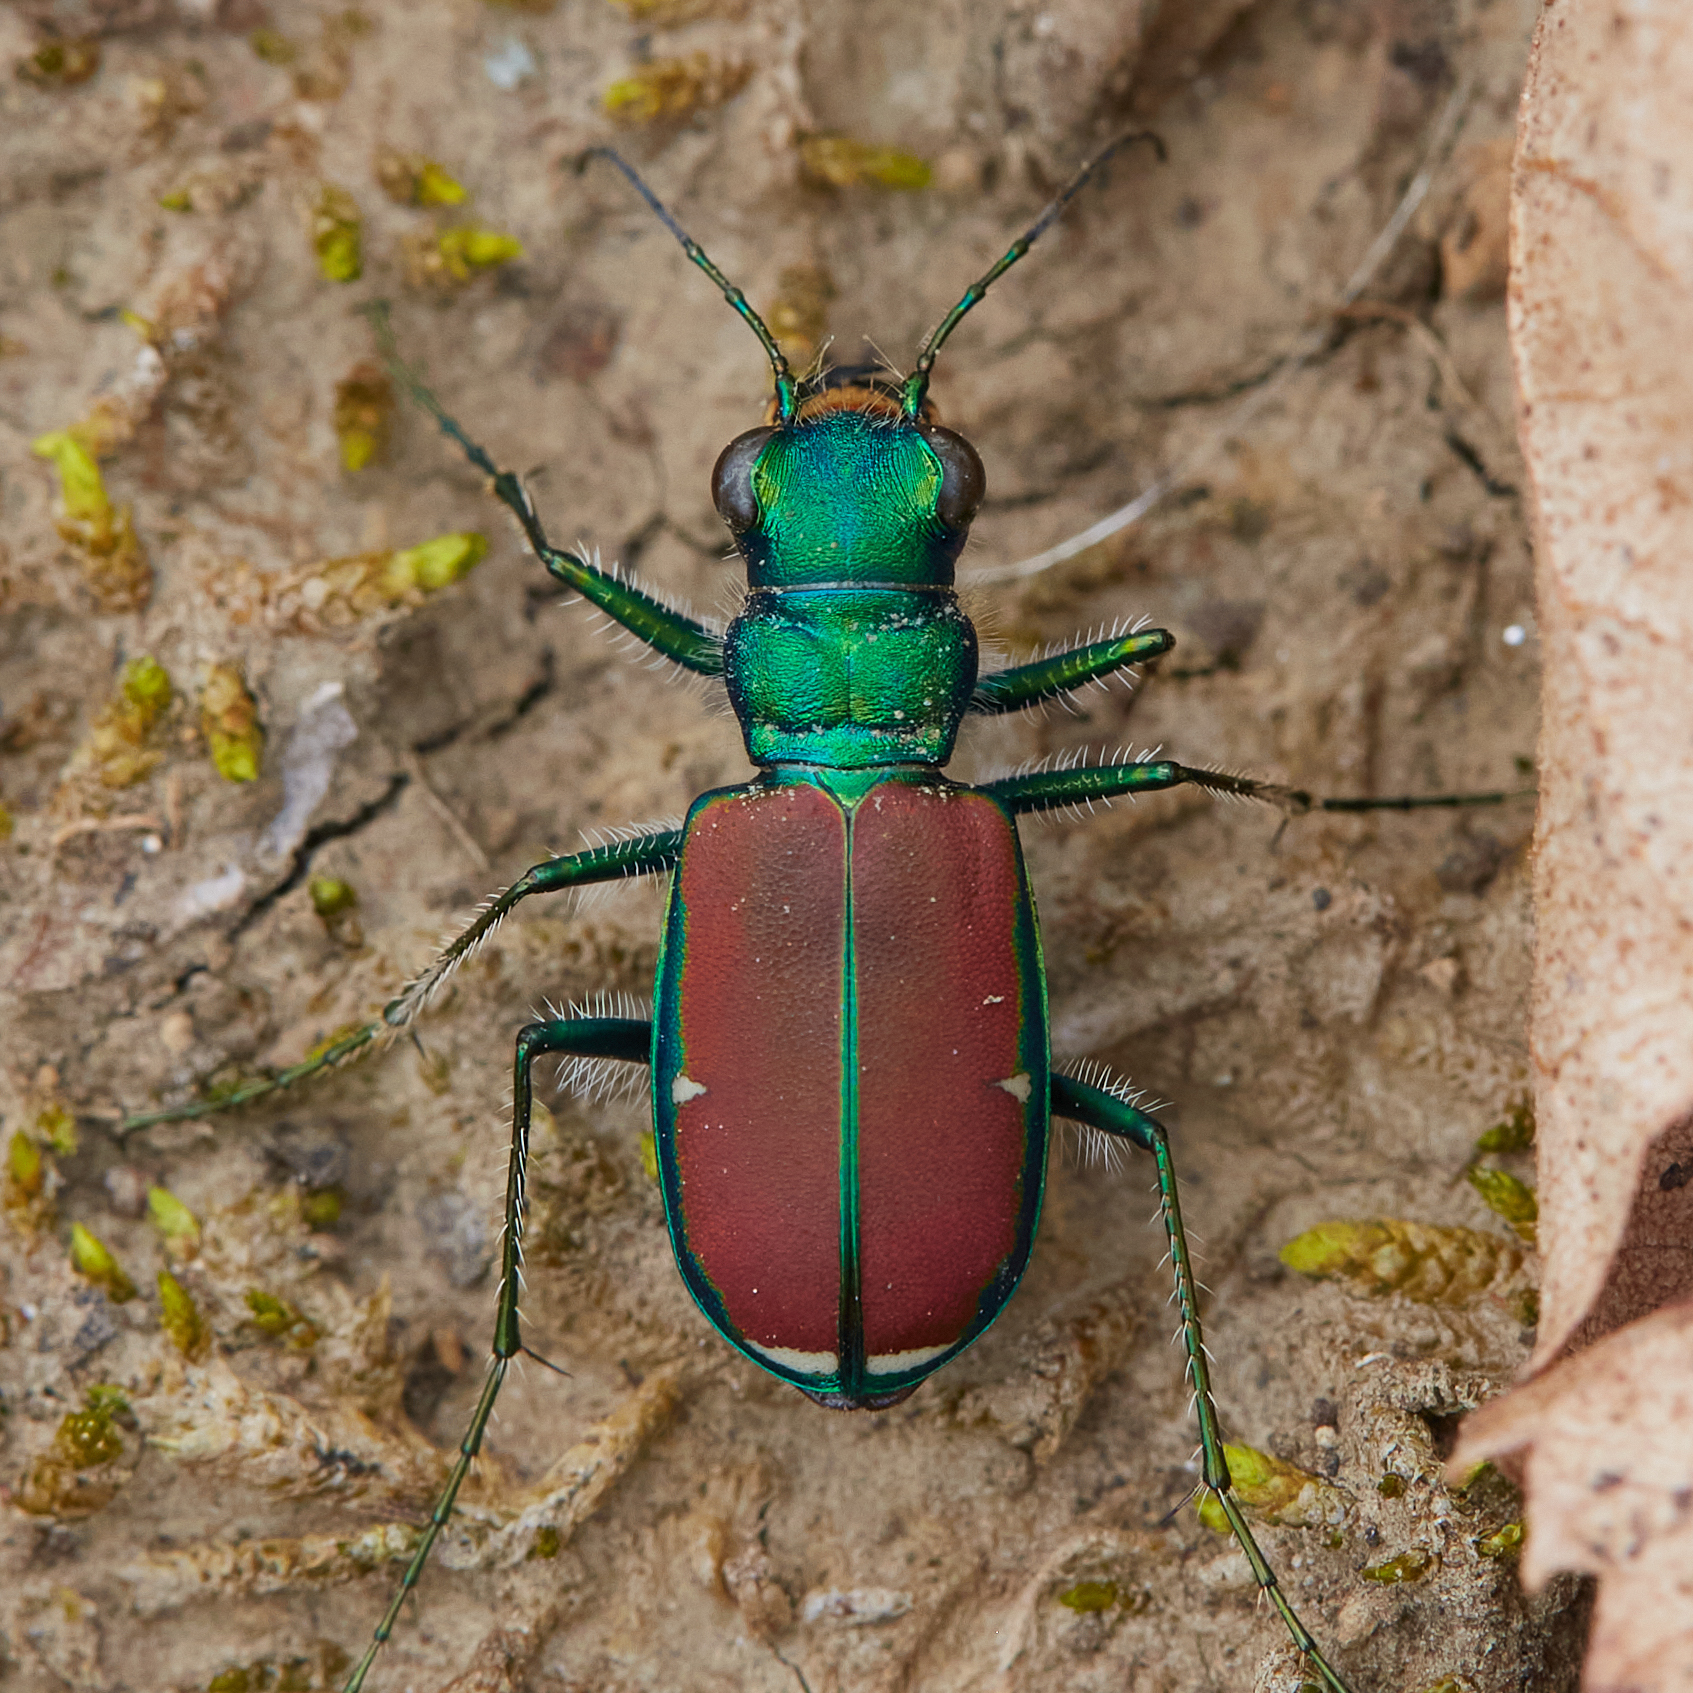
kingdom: Animalia
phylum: Arthropoda
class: Insecta
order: Coleoptera
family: Carabidae
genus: Cicindela
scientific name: Cicindela splendida
